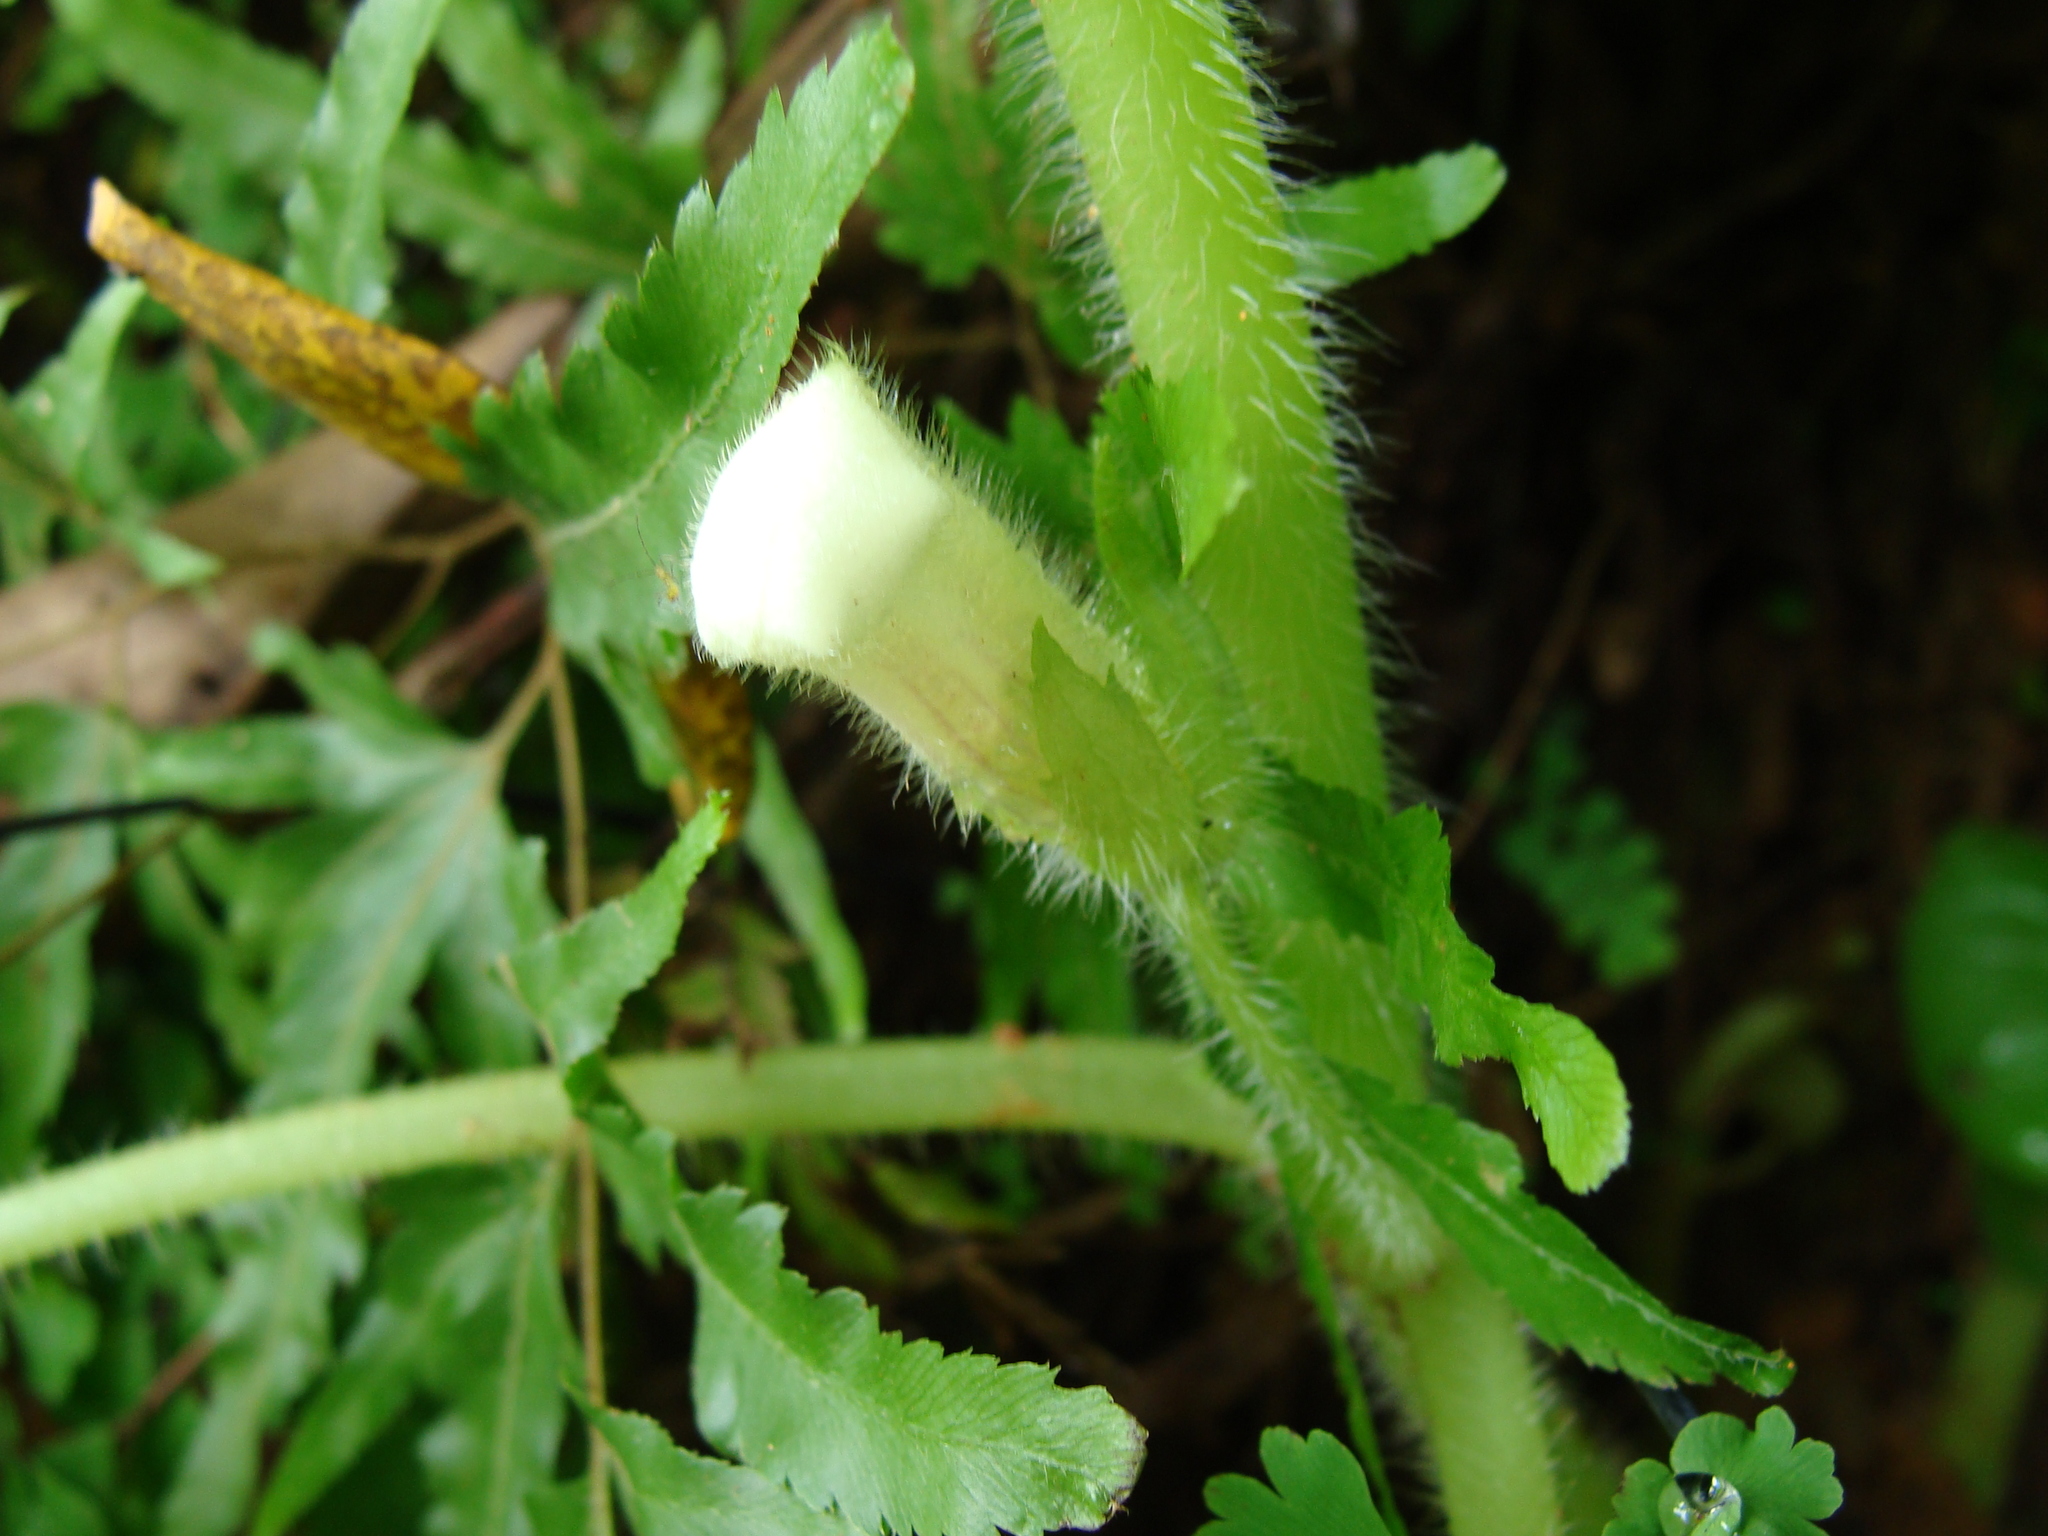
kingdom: Plantae
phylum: Tracheophyta
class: Magnoliopsida
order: Lamiales
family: Gesneriaceae
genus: Chrysothemis
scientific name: Chrysothemis panamensis
